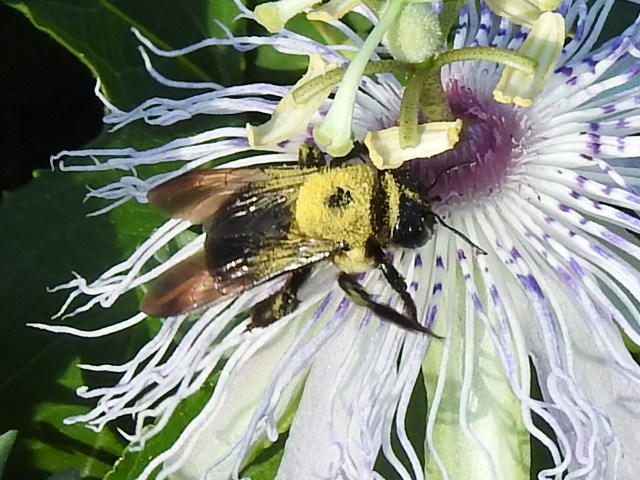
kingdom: Animalia
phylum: Arthropoda
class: Insecta
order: Hymenoptera
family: Apidae
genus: Xylocopa
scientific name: Xylocopa virginica
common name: Carpenter bee
